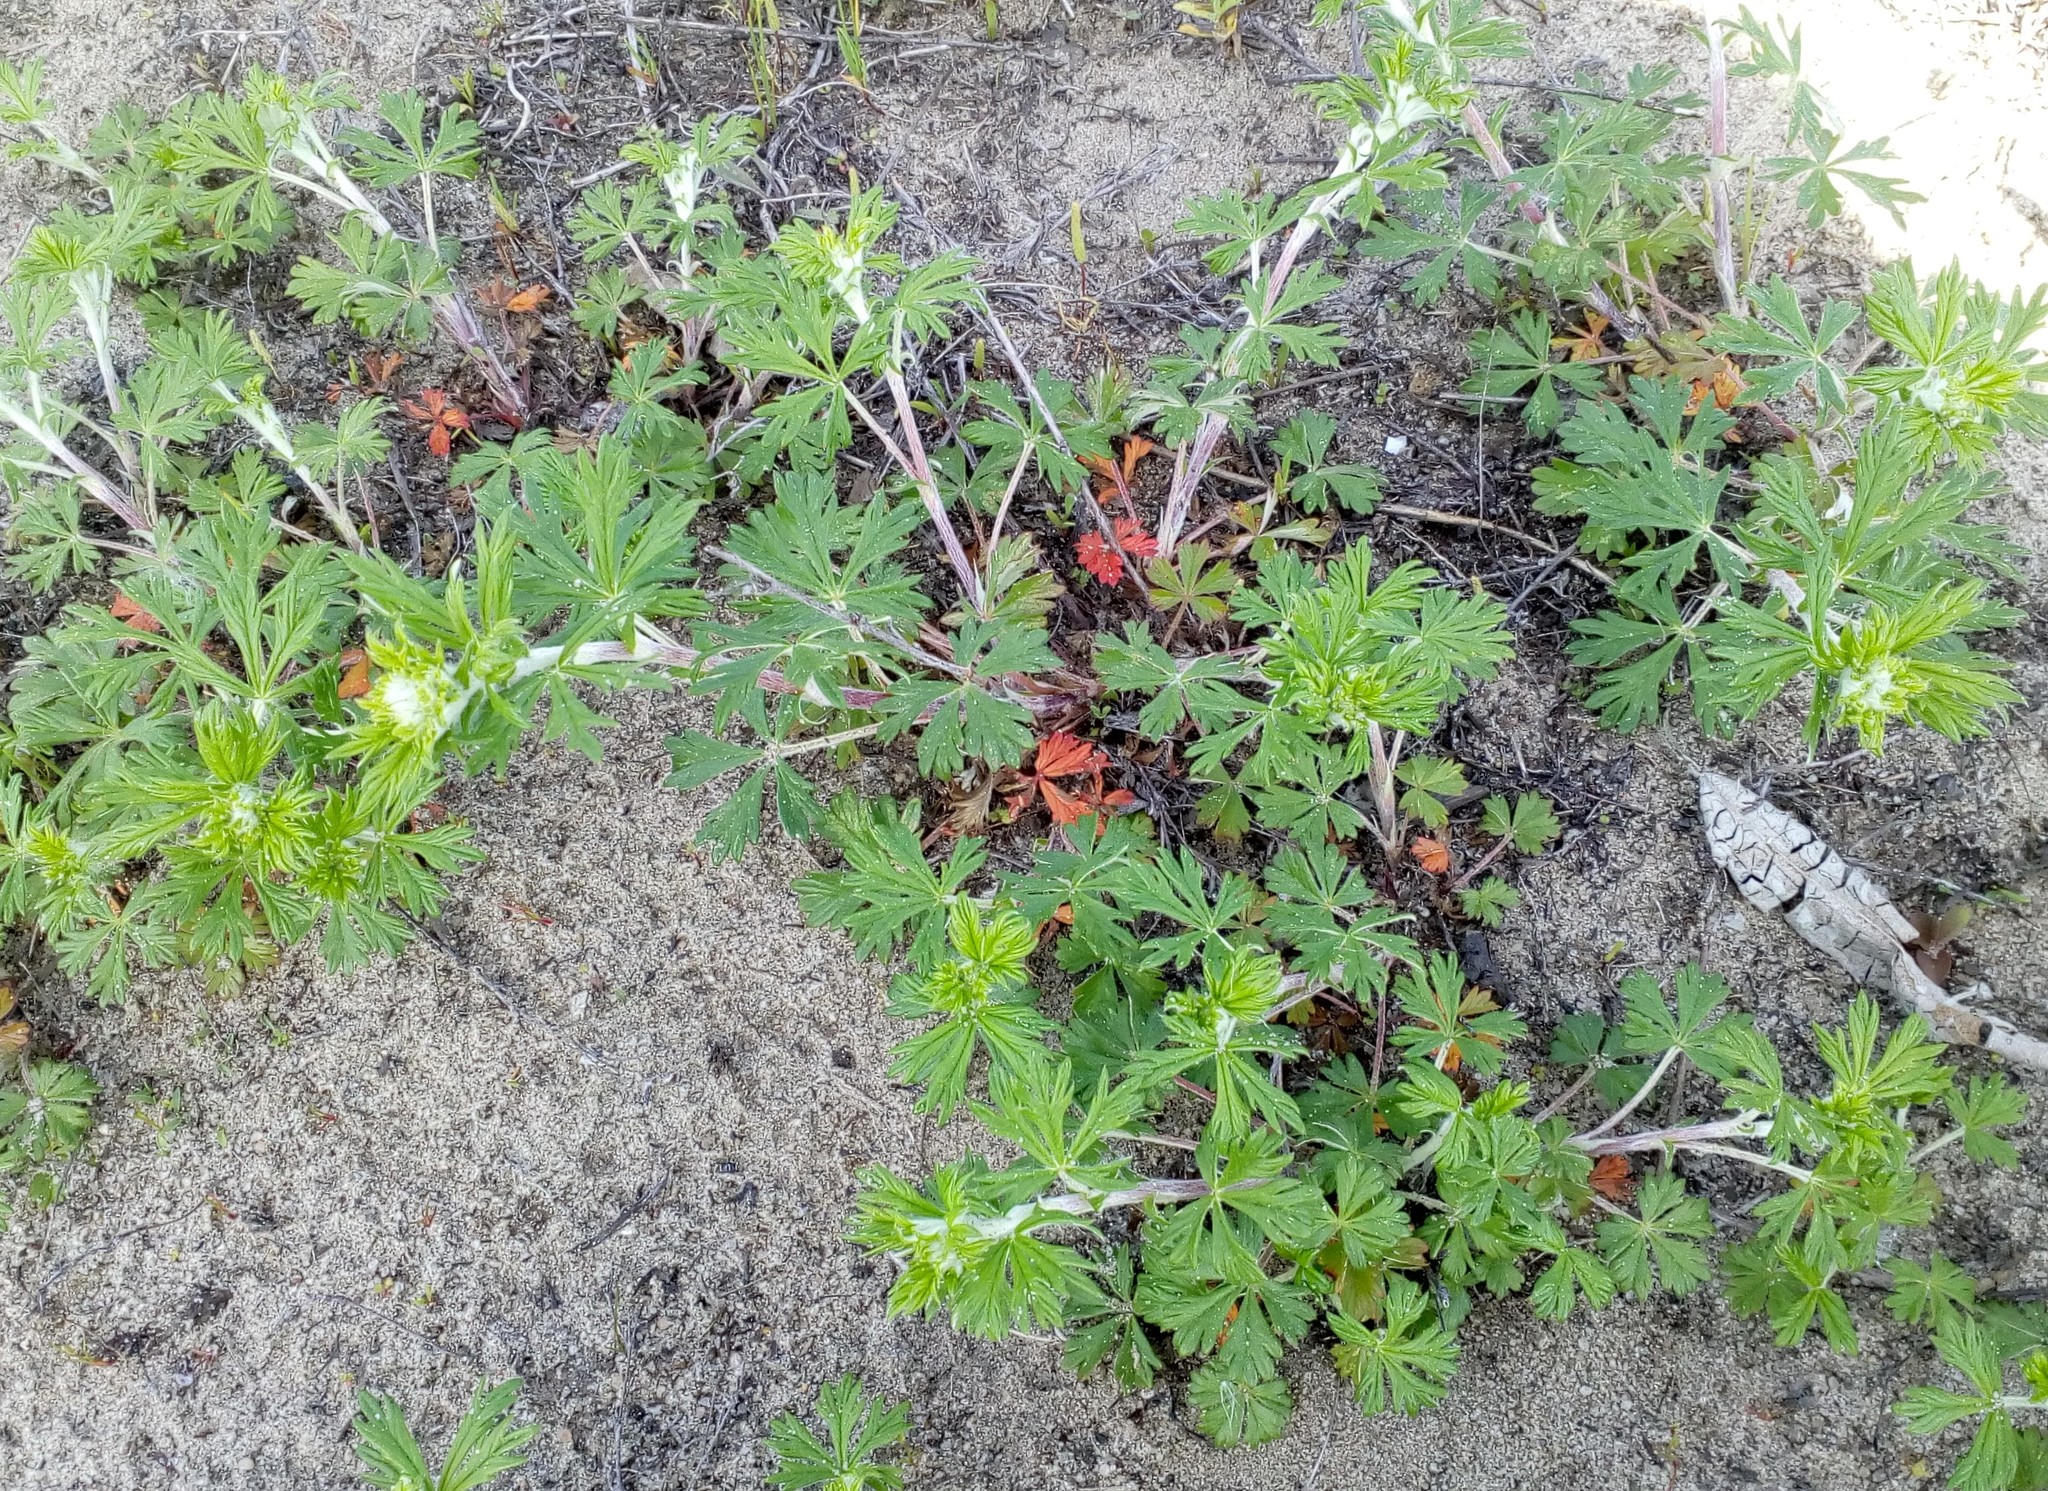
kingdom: Plantae
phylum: Tracheophyta
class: Magnoliopsida
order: Rosales
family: Rosaceae
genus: Potentilla
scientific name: Potentilla argentea
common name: Hoary cinquefoil
